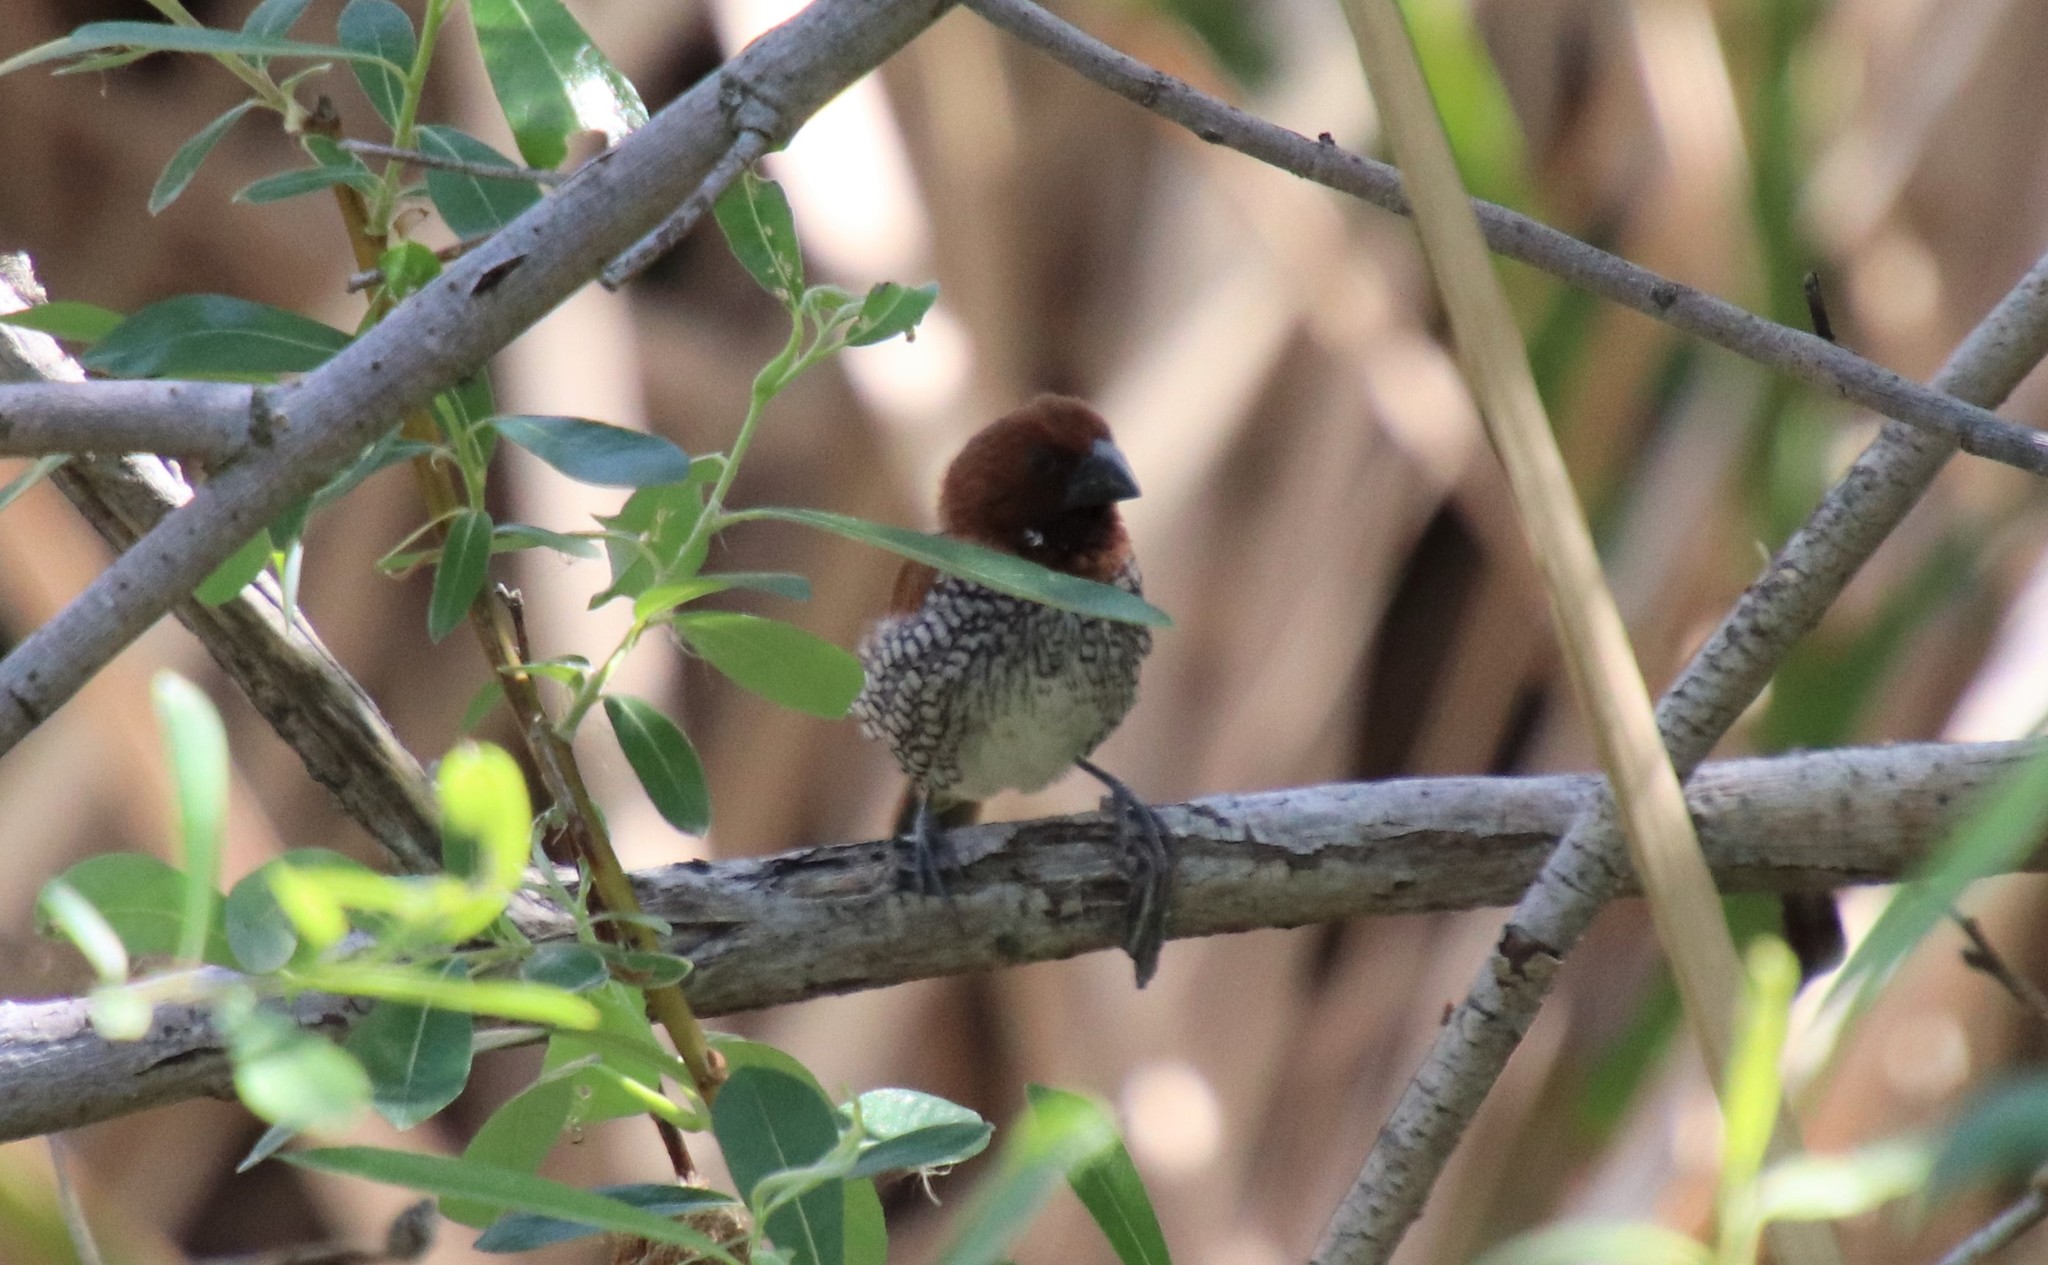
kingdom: Animalia
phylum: Chordata
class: Aves
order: Passeriformes
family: Estrildidae
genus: Lonchura
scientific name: Lonchura punctulata
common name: Scaly-breasted munia
